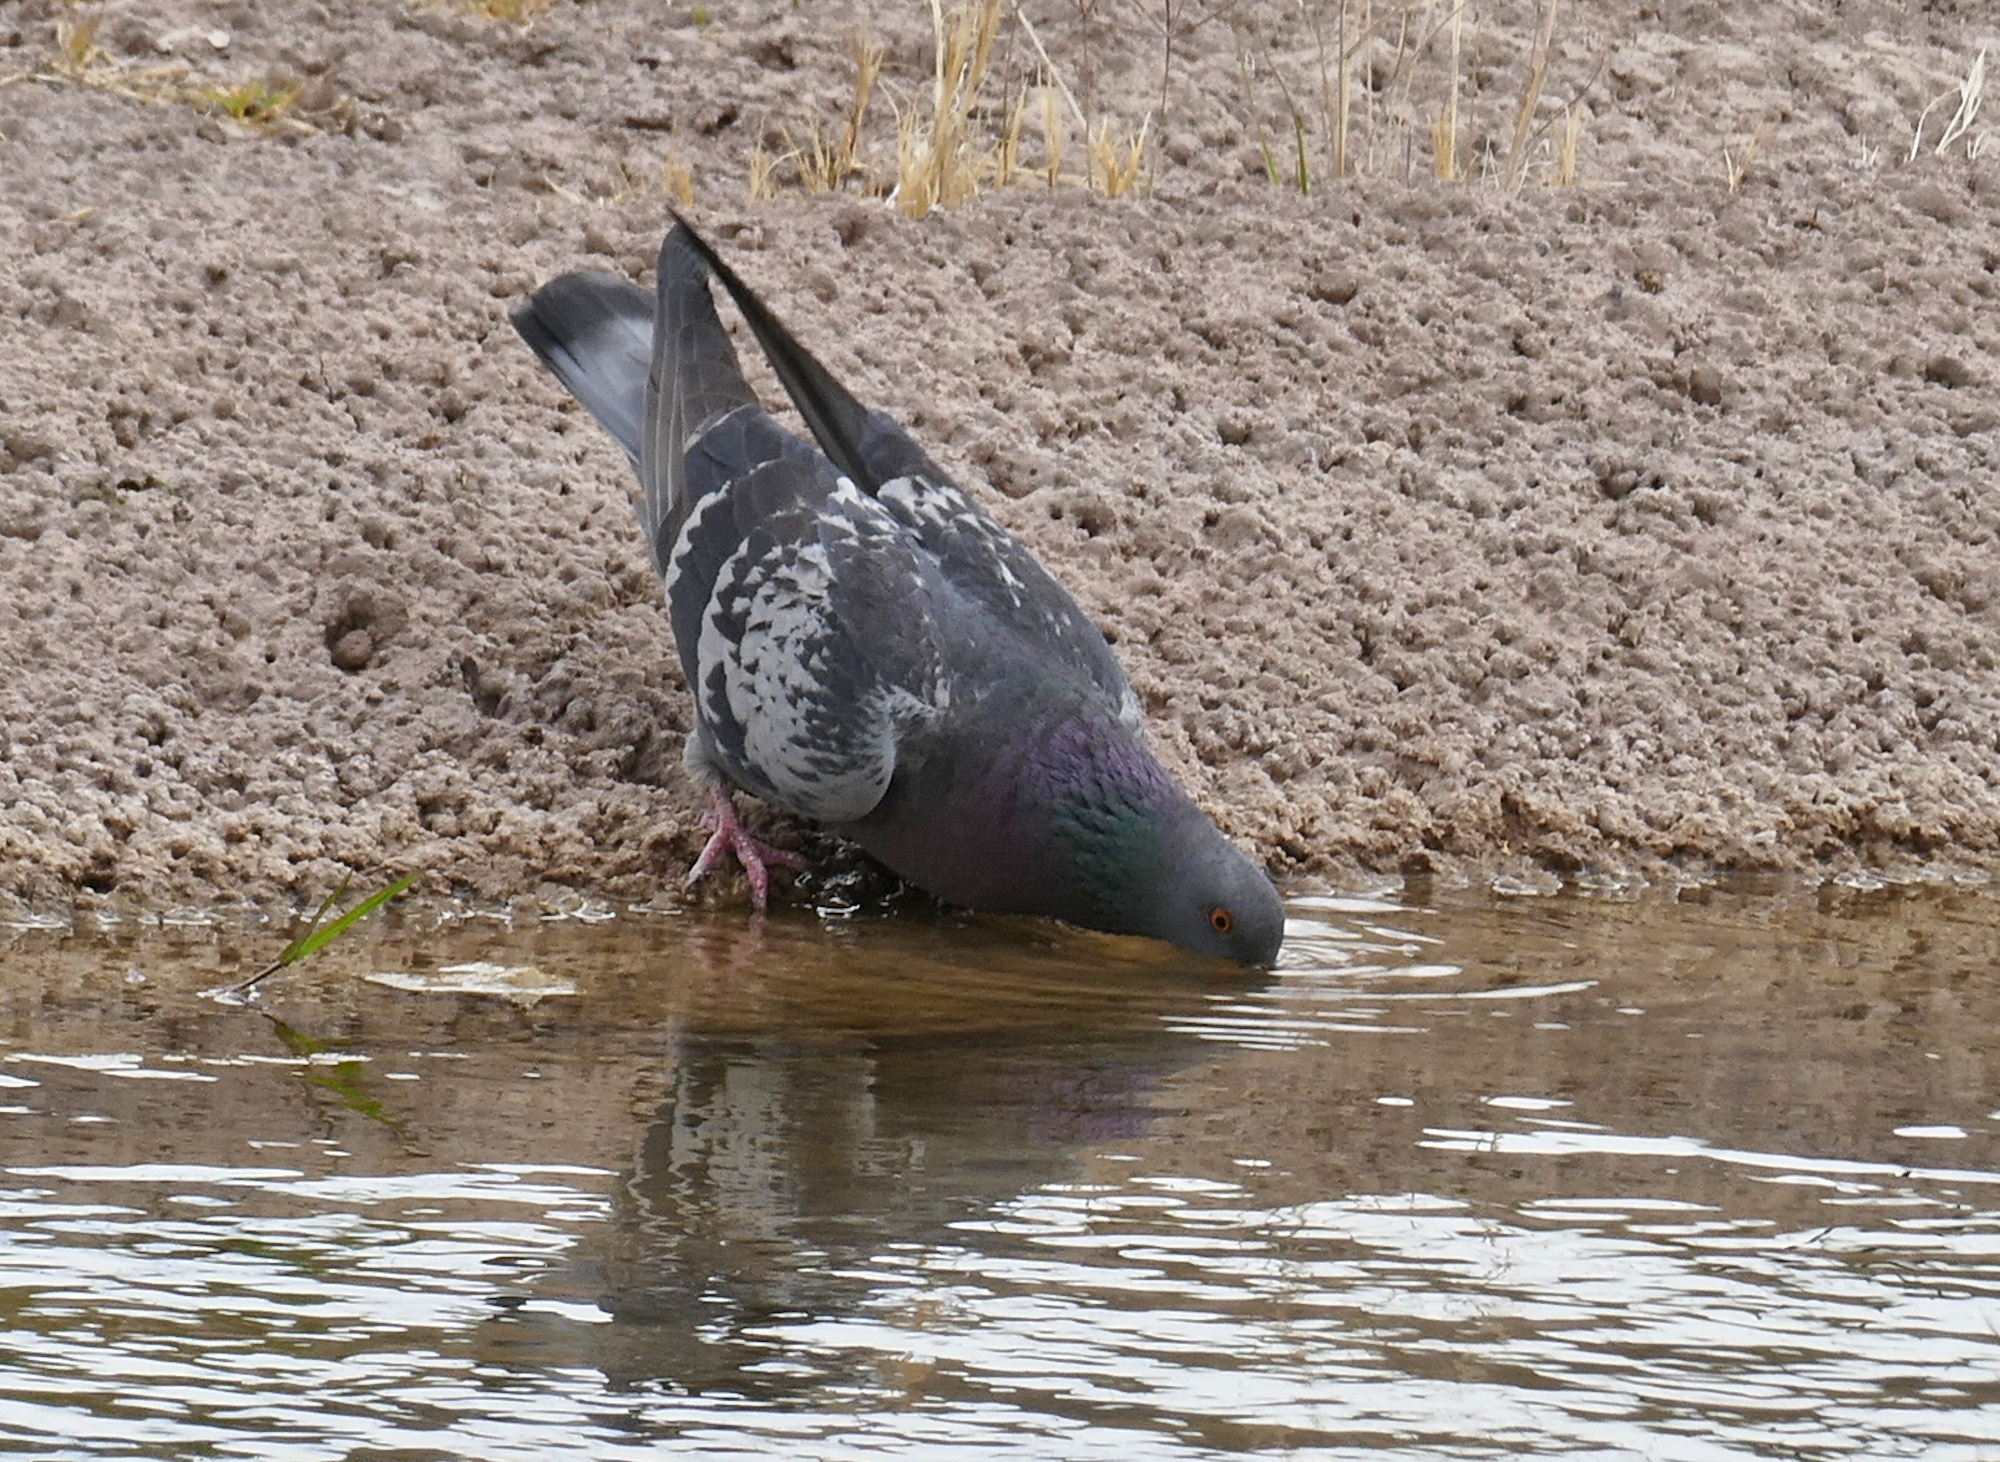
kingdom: Animalia
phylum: Chordata
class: Aves
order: Columbiformes
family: Columbidae
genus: Columba
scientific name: Columba livia
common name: Rock pigeon
